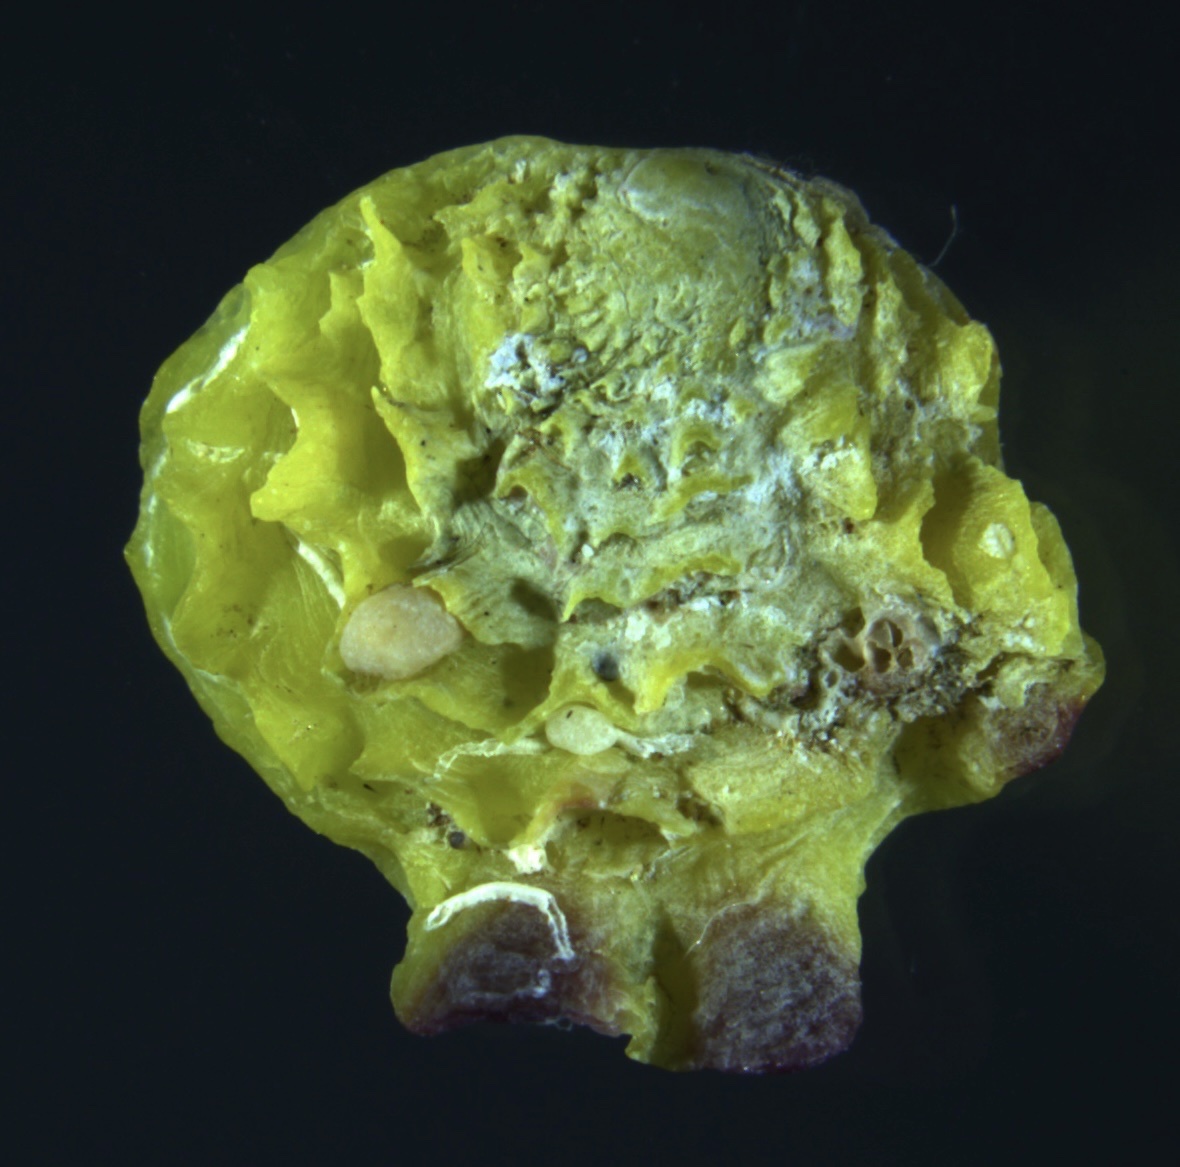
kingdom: Animalia
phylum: Mollusca
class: Bivalvia
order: Venerida
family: Chamidae
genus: Chama
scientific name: Chama macerophylla
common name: Leafy jewelbox
